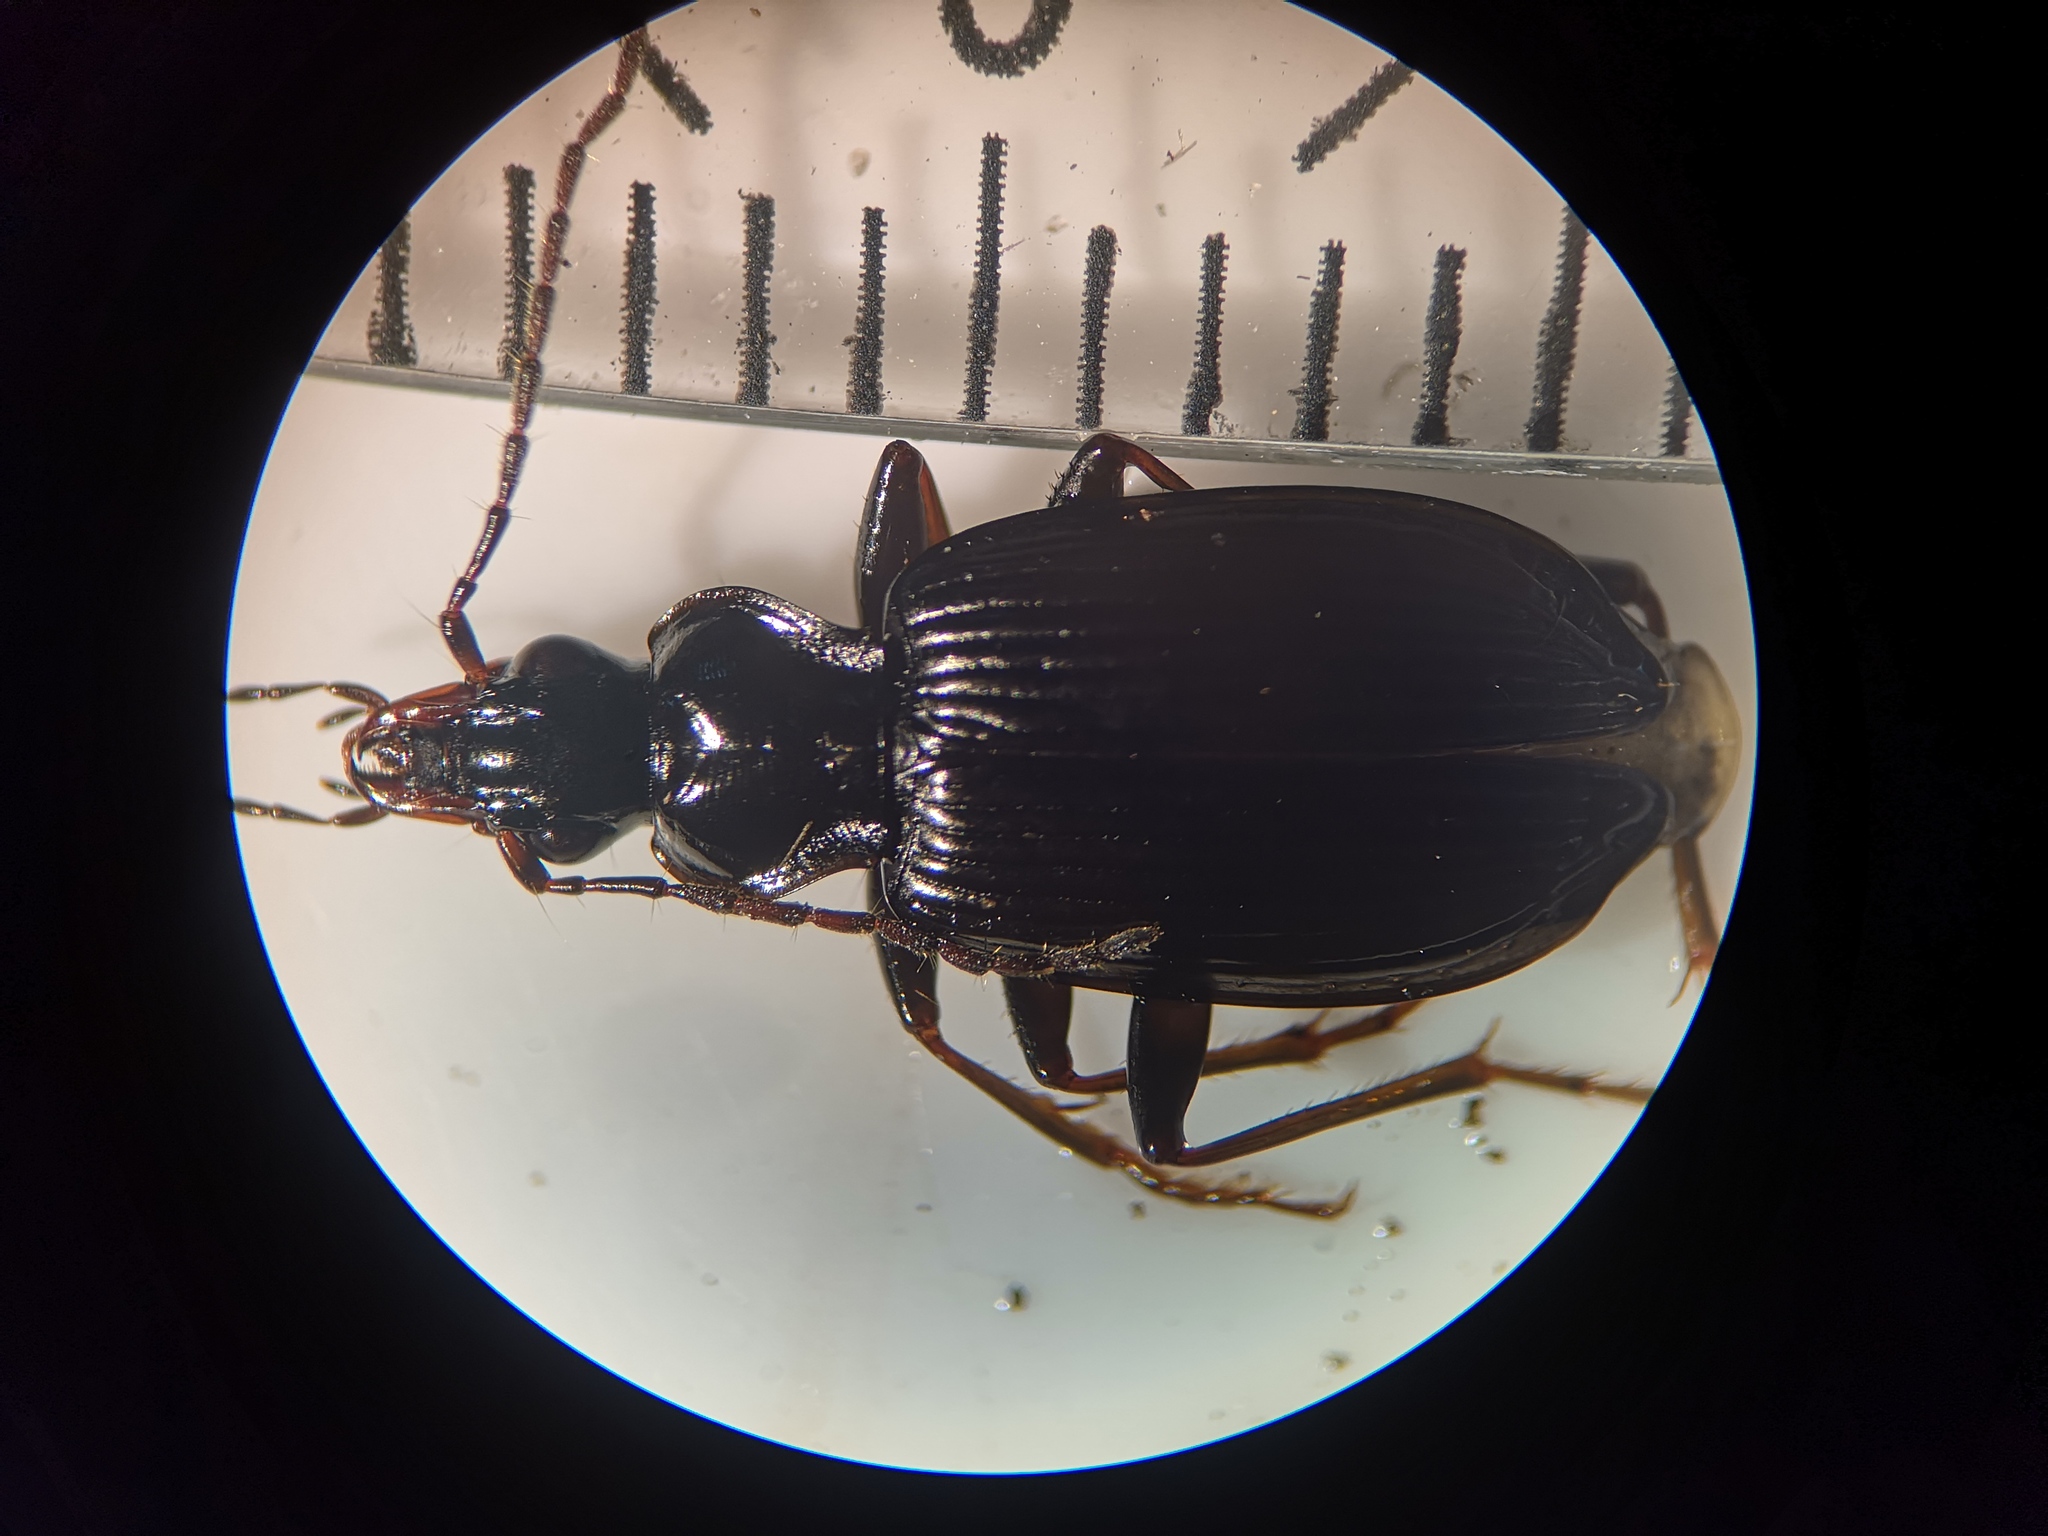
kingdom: Animalia
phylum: Arthropoda
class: Insecta
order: Coleoptera
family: Carabidae
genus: Platynus
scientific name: Platynus assimilis
